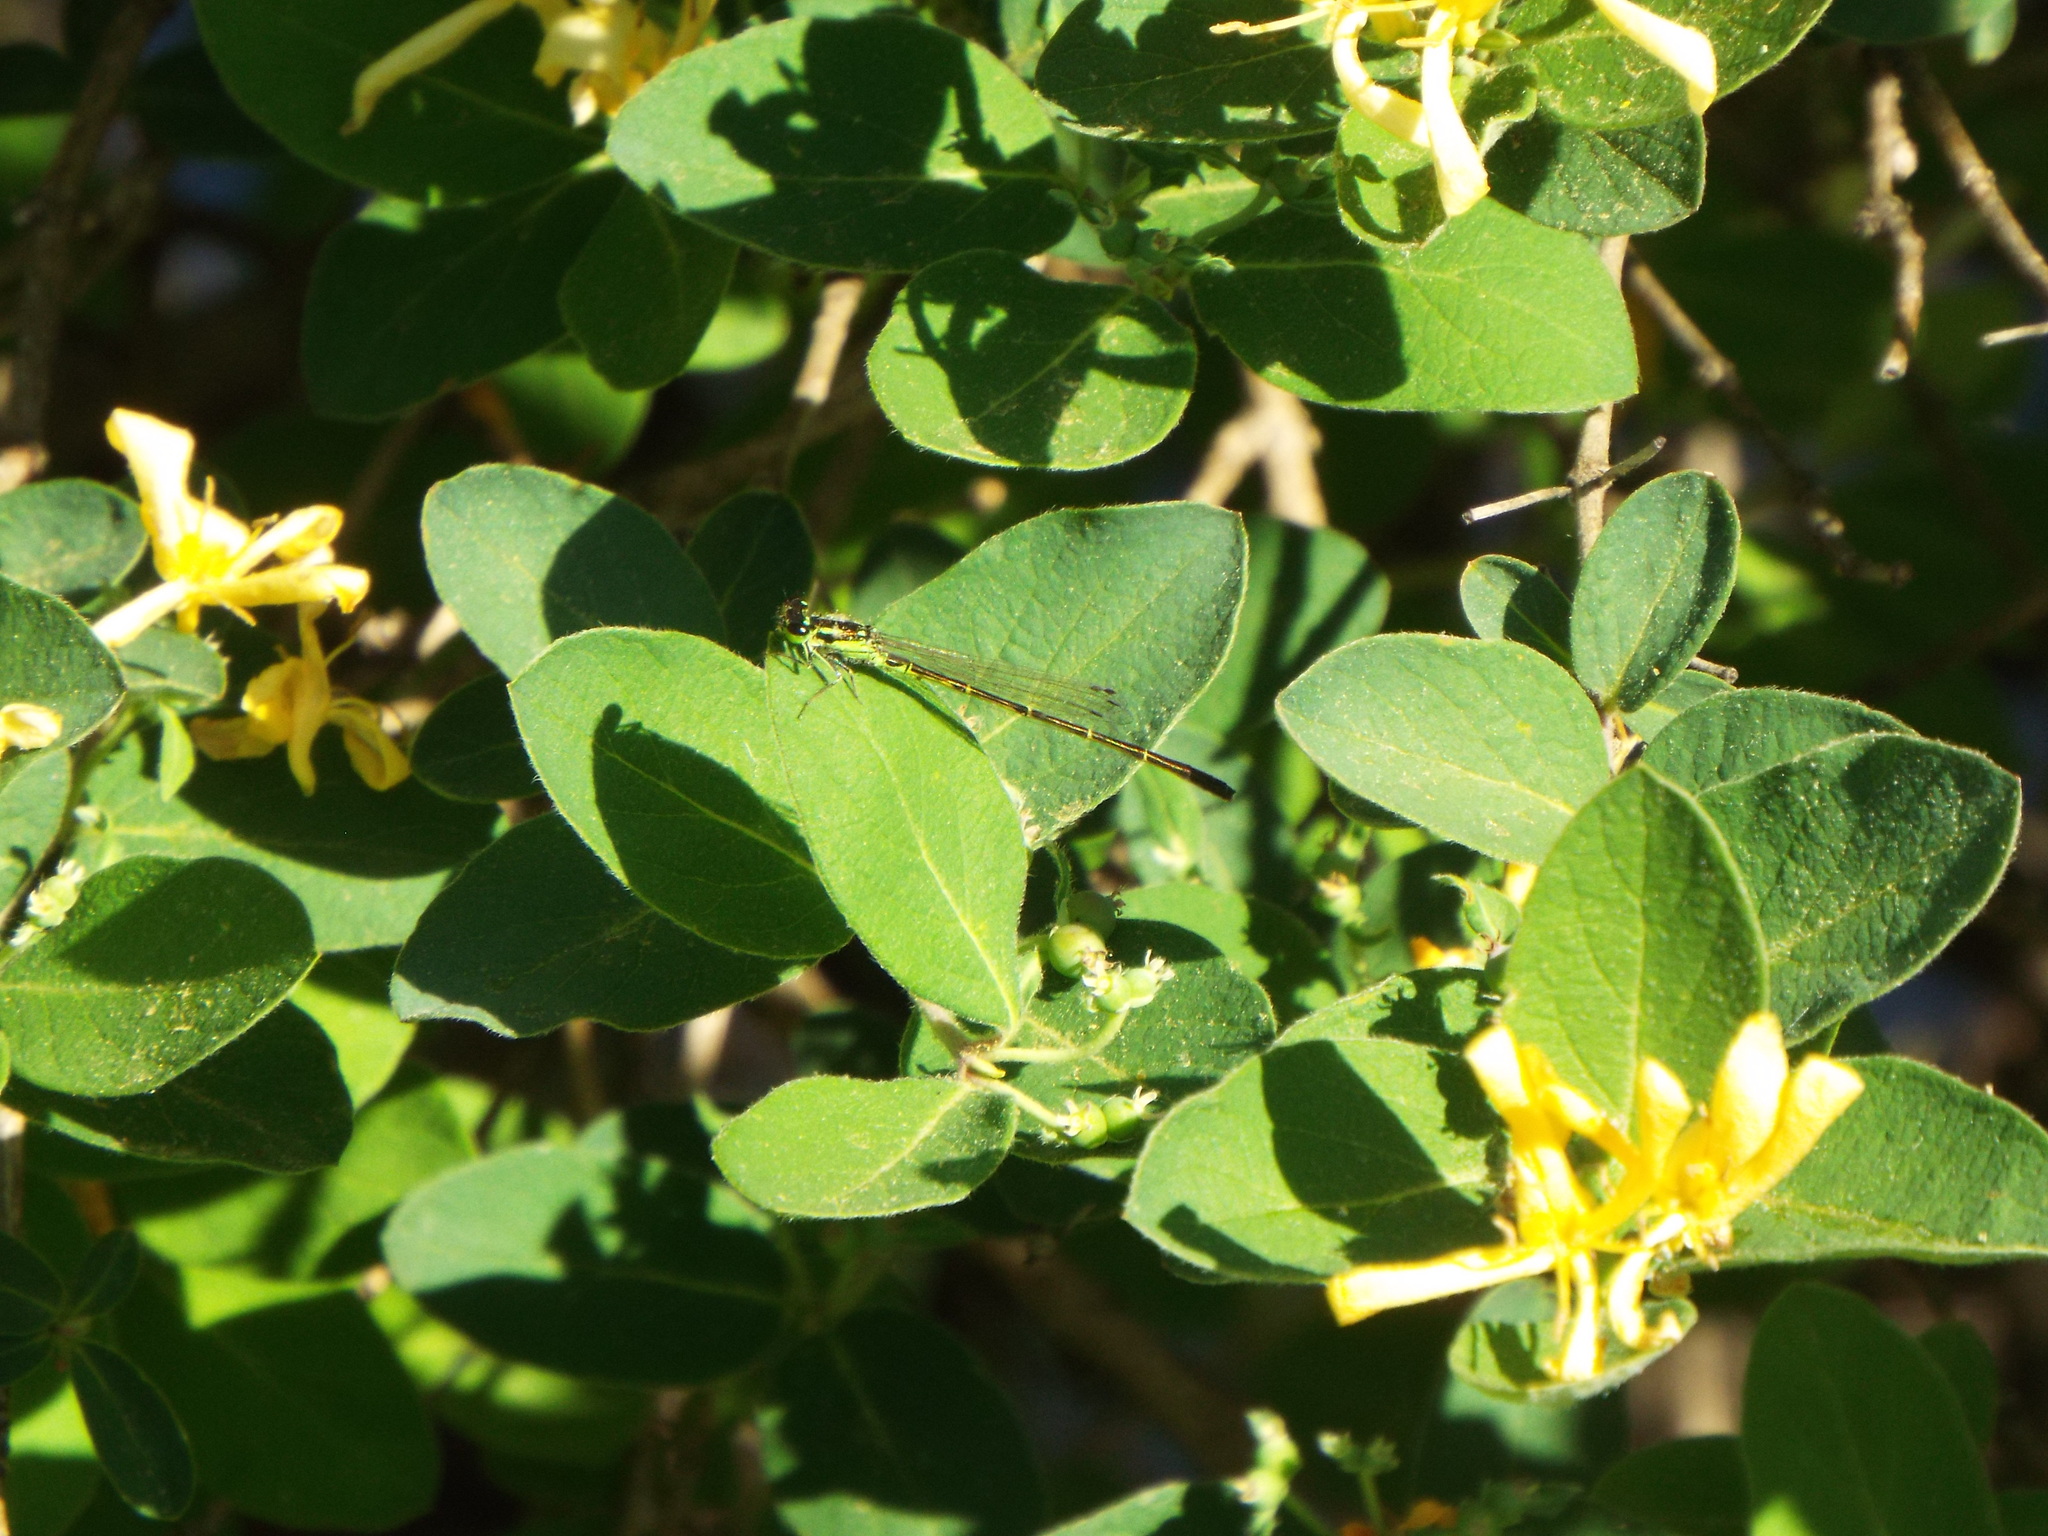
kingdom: Animalia
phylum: Arthropoda
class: Insecta
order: Odonata
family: Coenagrionidae
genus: Ischnura
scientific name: Ischnura posita
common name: Fragile forktail
